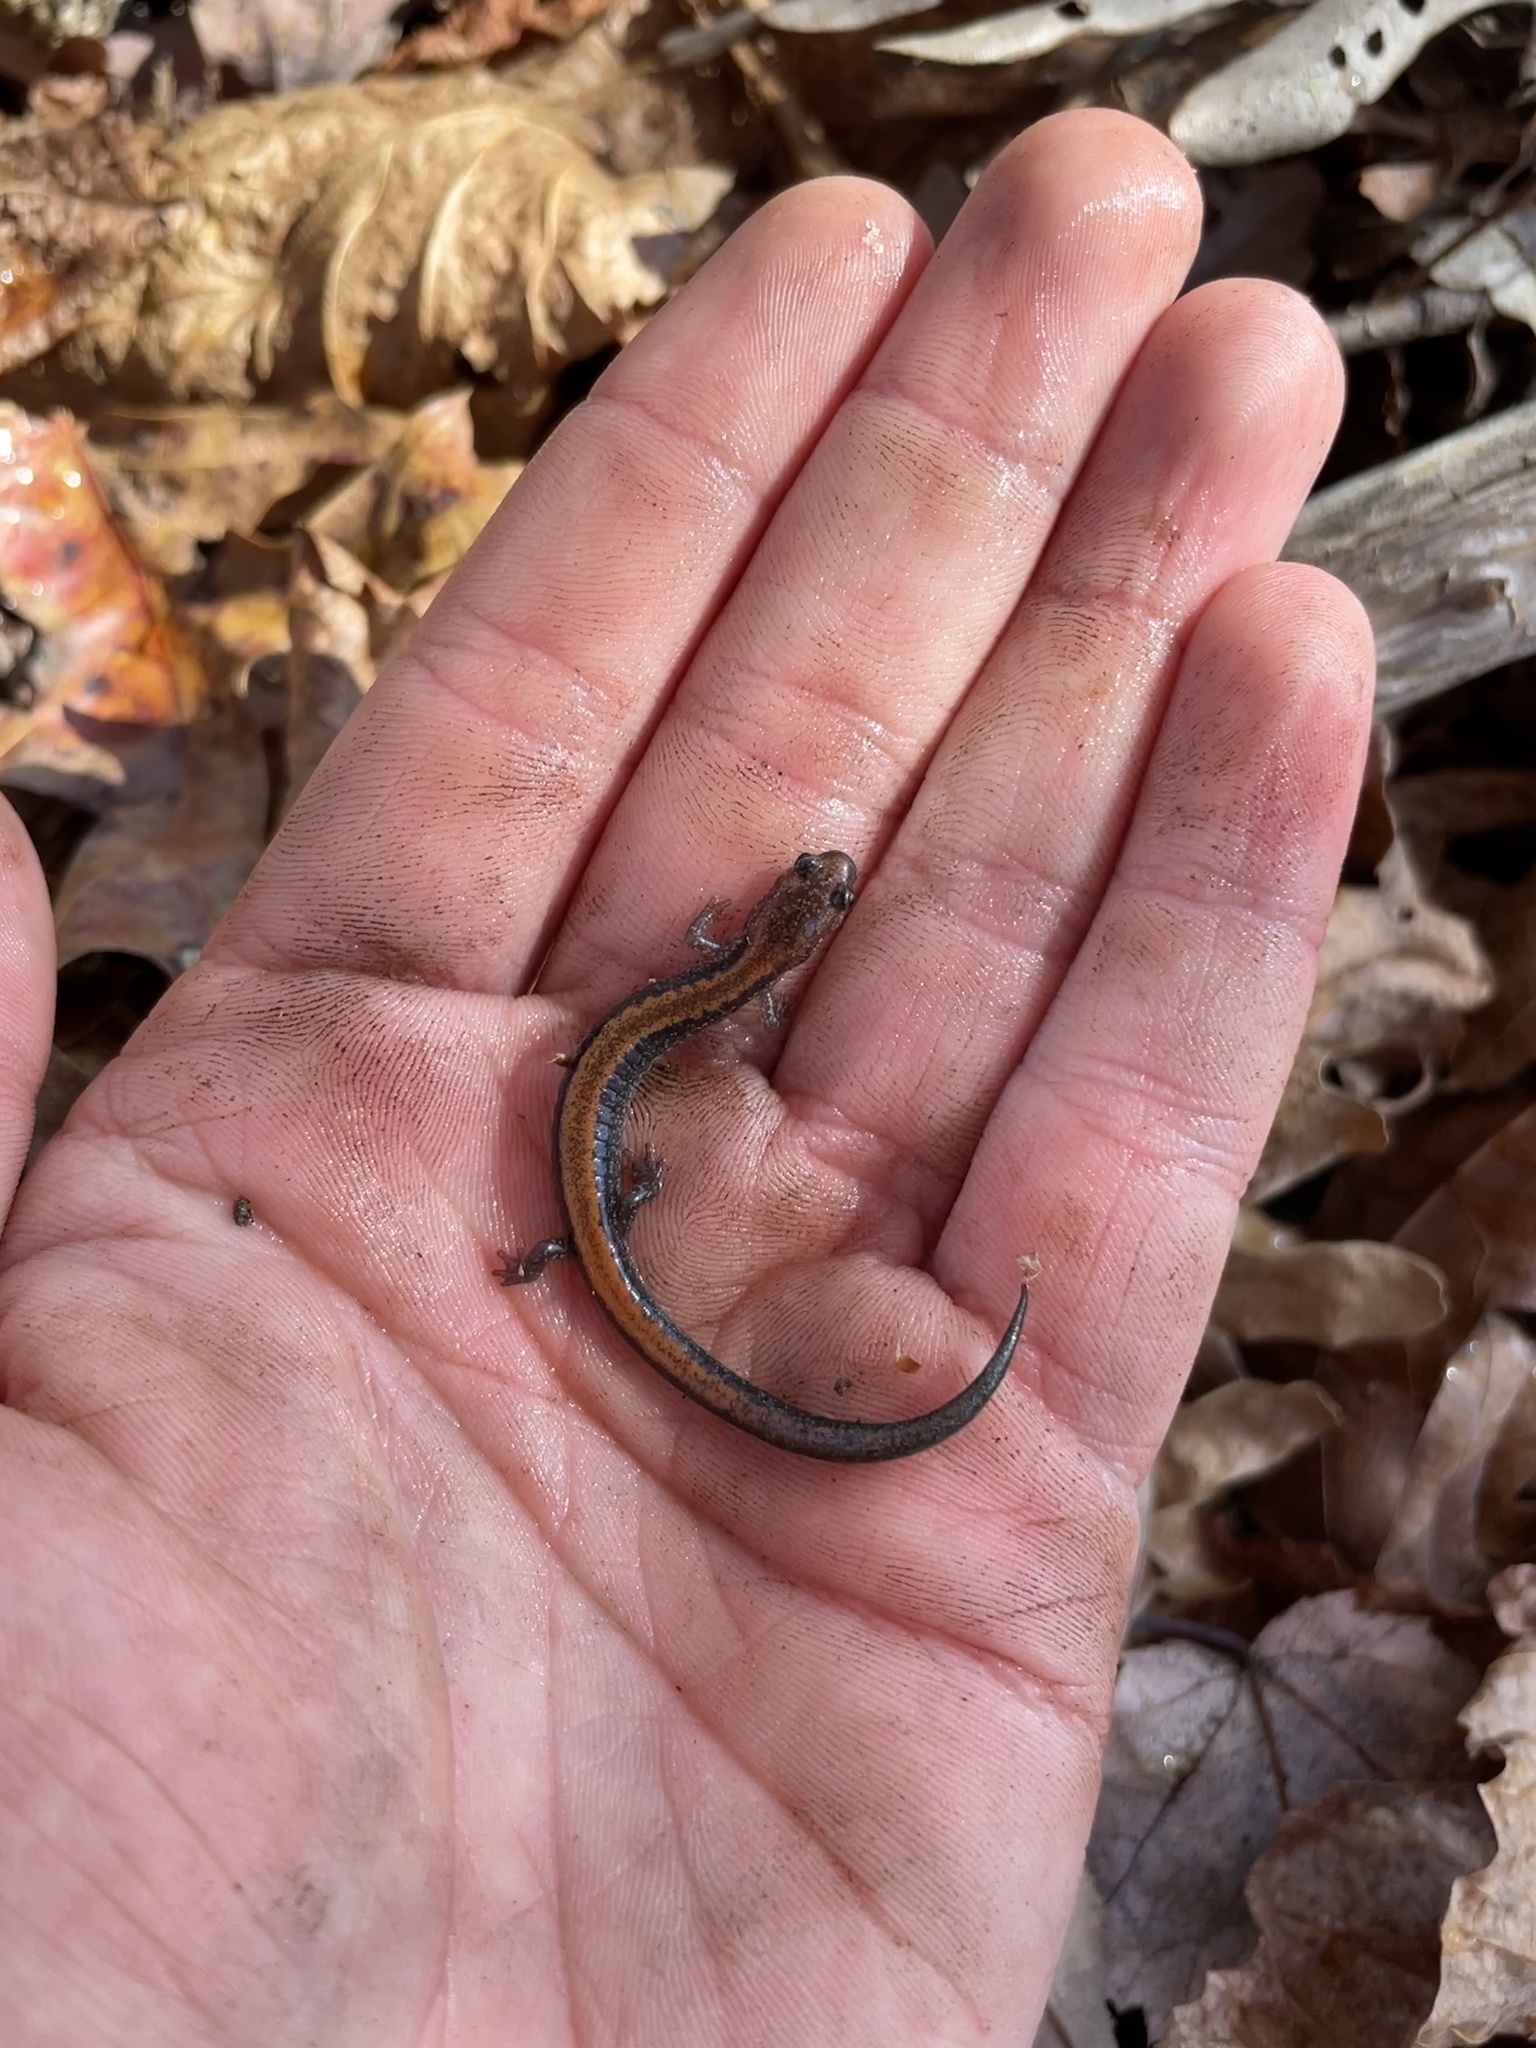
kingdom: Animalia
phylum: Chordata
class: Amphibia
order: Caudata
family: Plethodontidae
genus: Plethodon
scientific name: Plethodon cinereus
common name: Redback salamander
